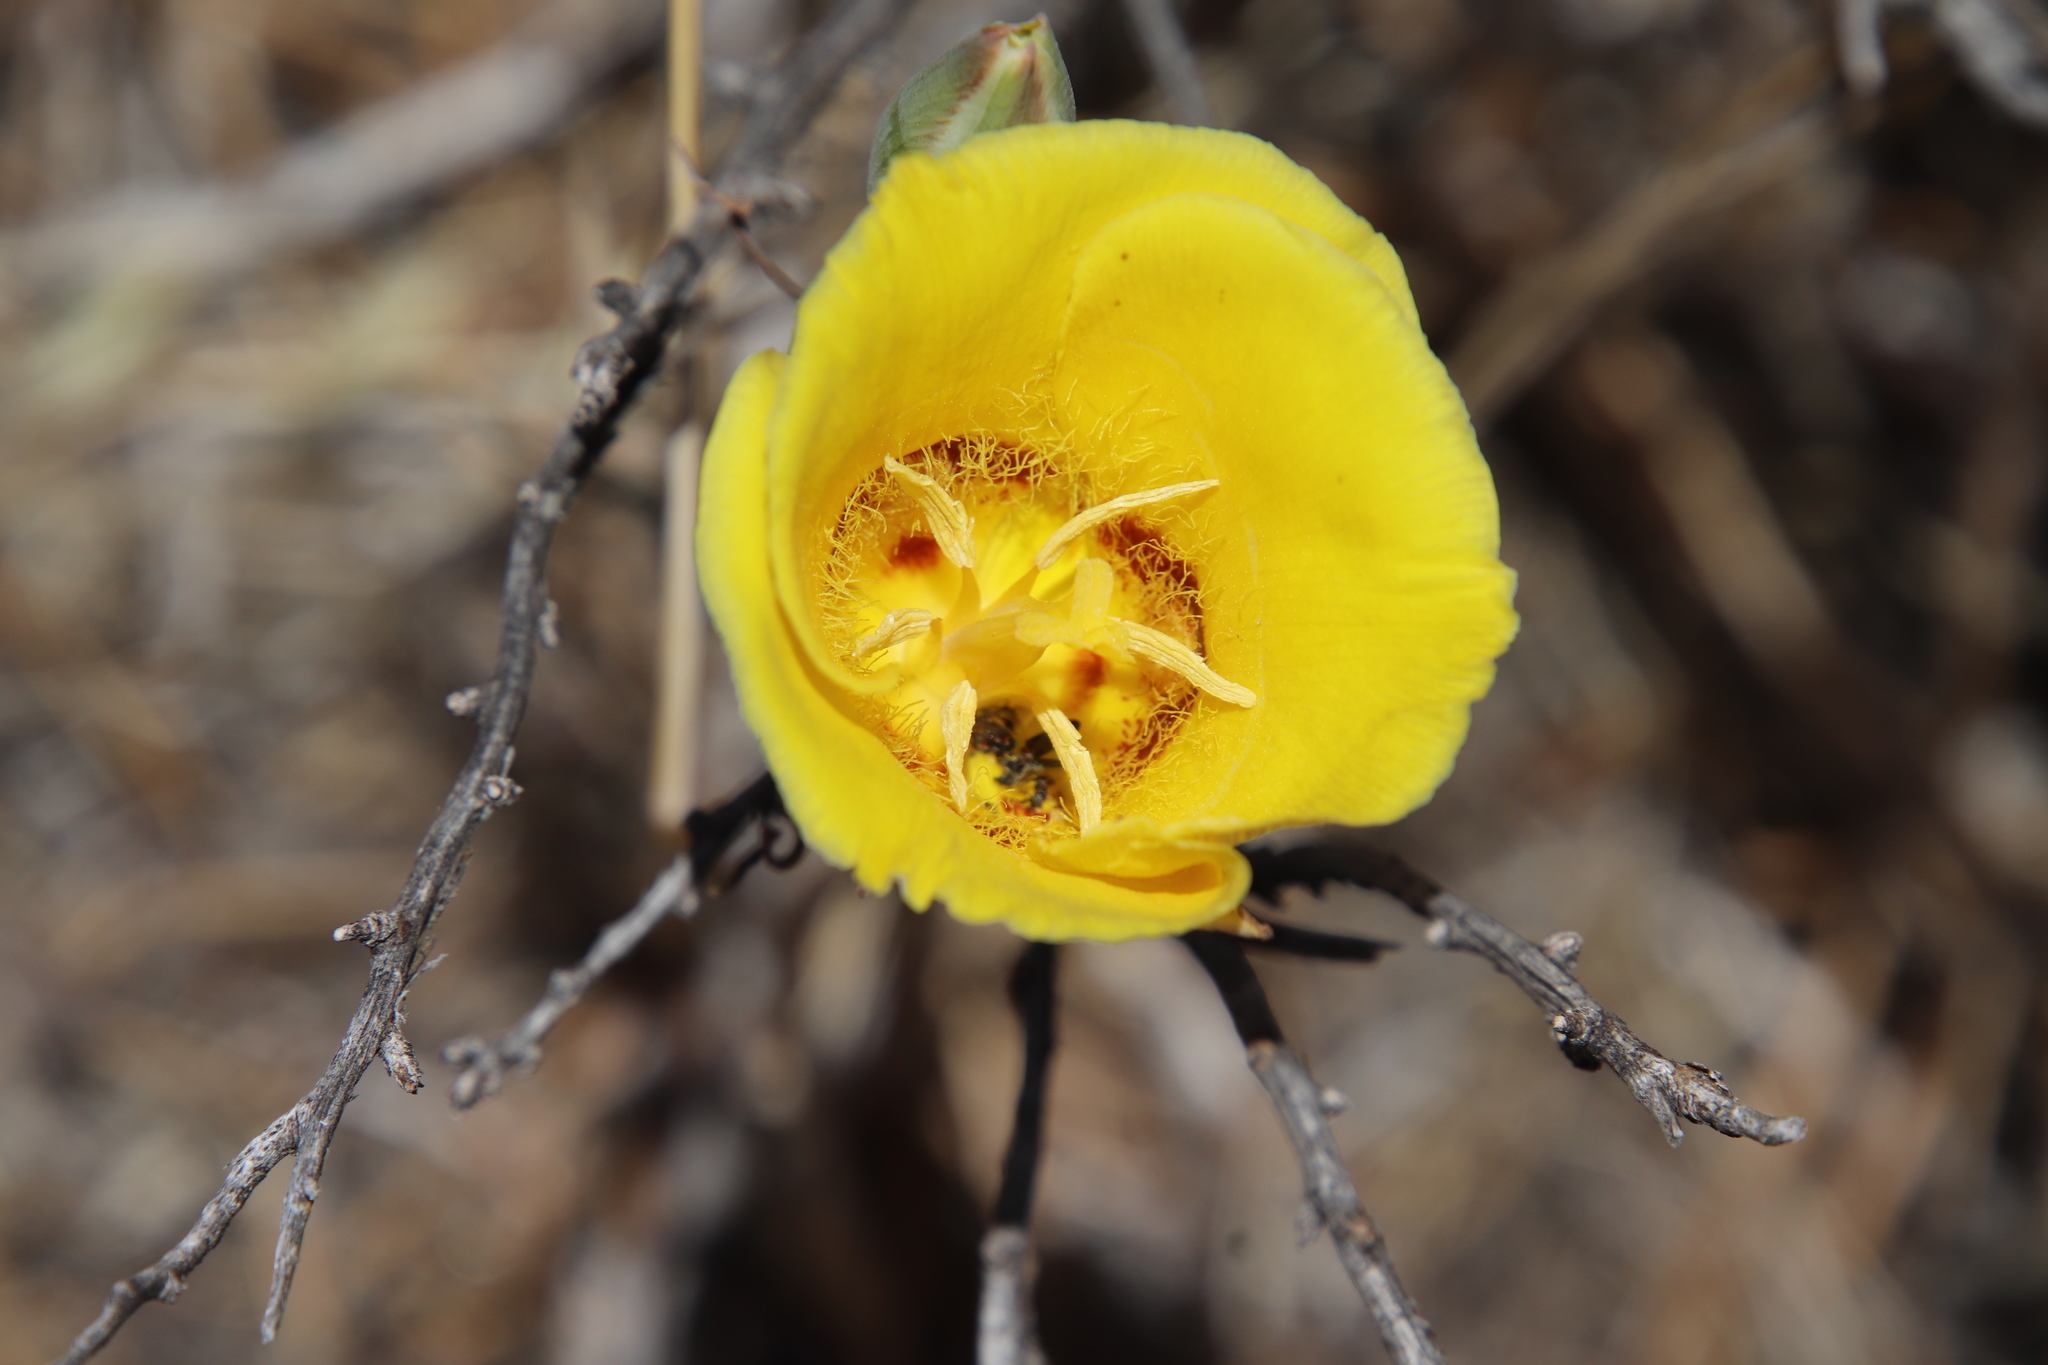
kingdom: Plantae
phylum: Tracheophyta
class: Liliopsida
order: Liliales
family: Liliaceae
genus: Calochortus
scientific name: Calochortus concolor
